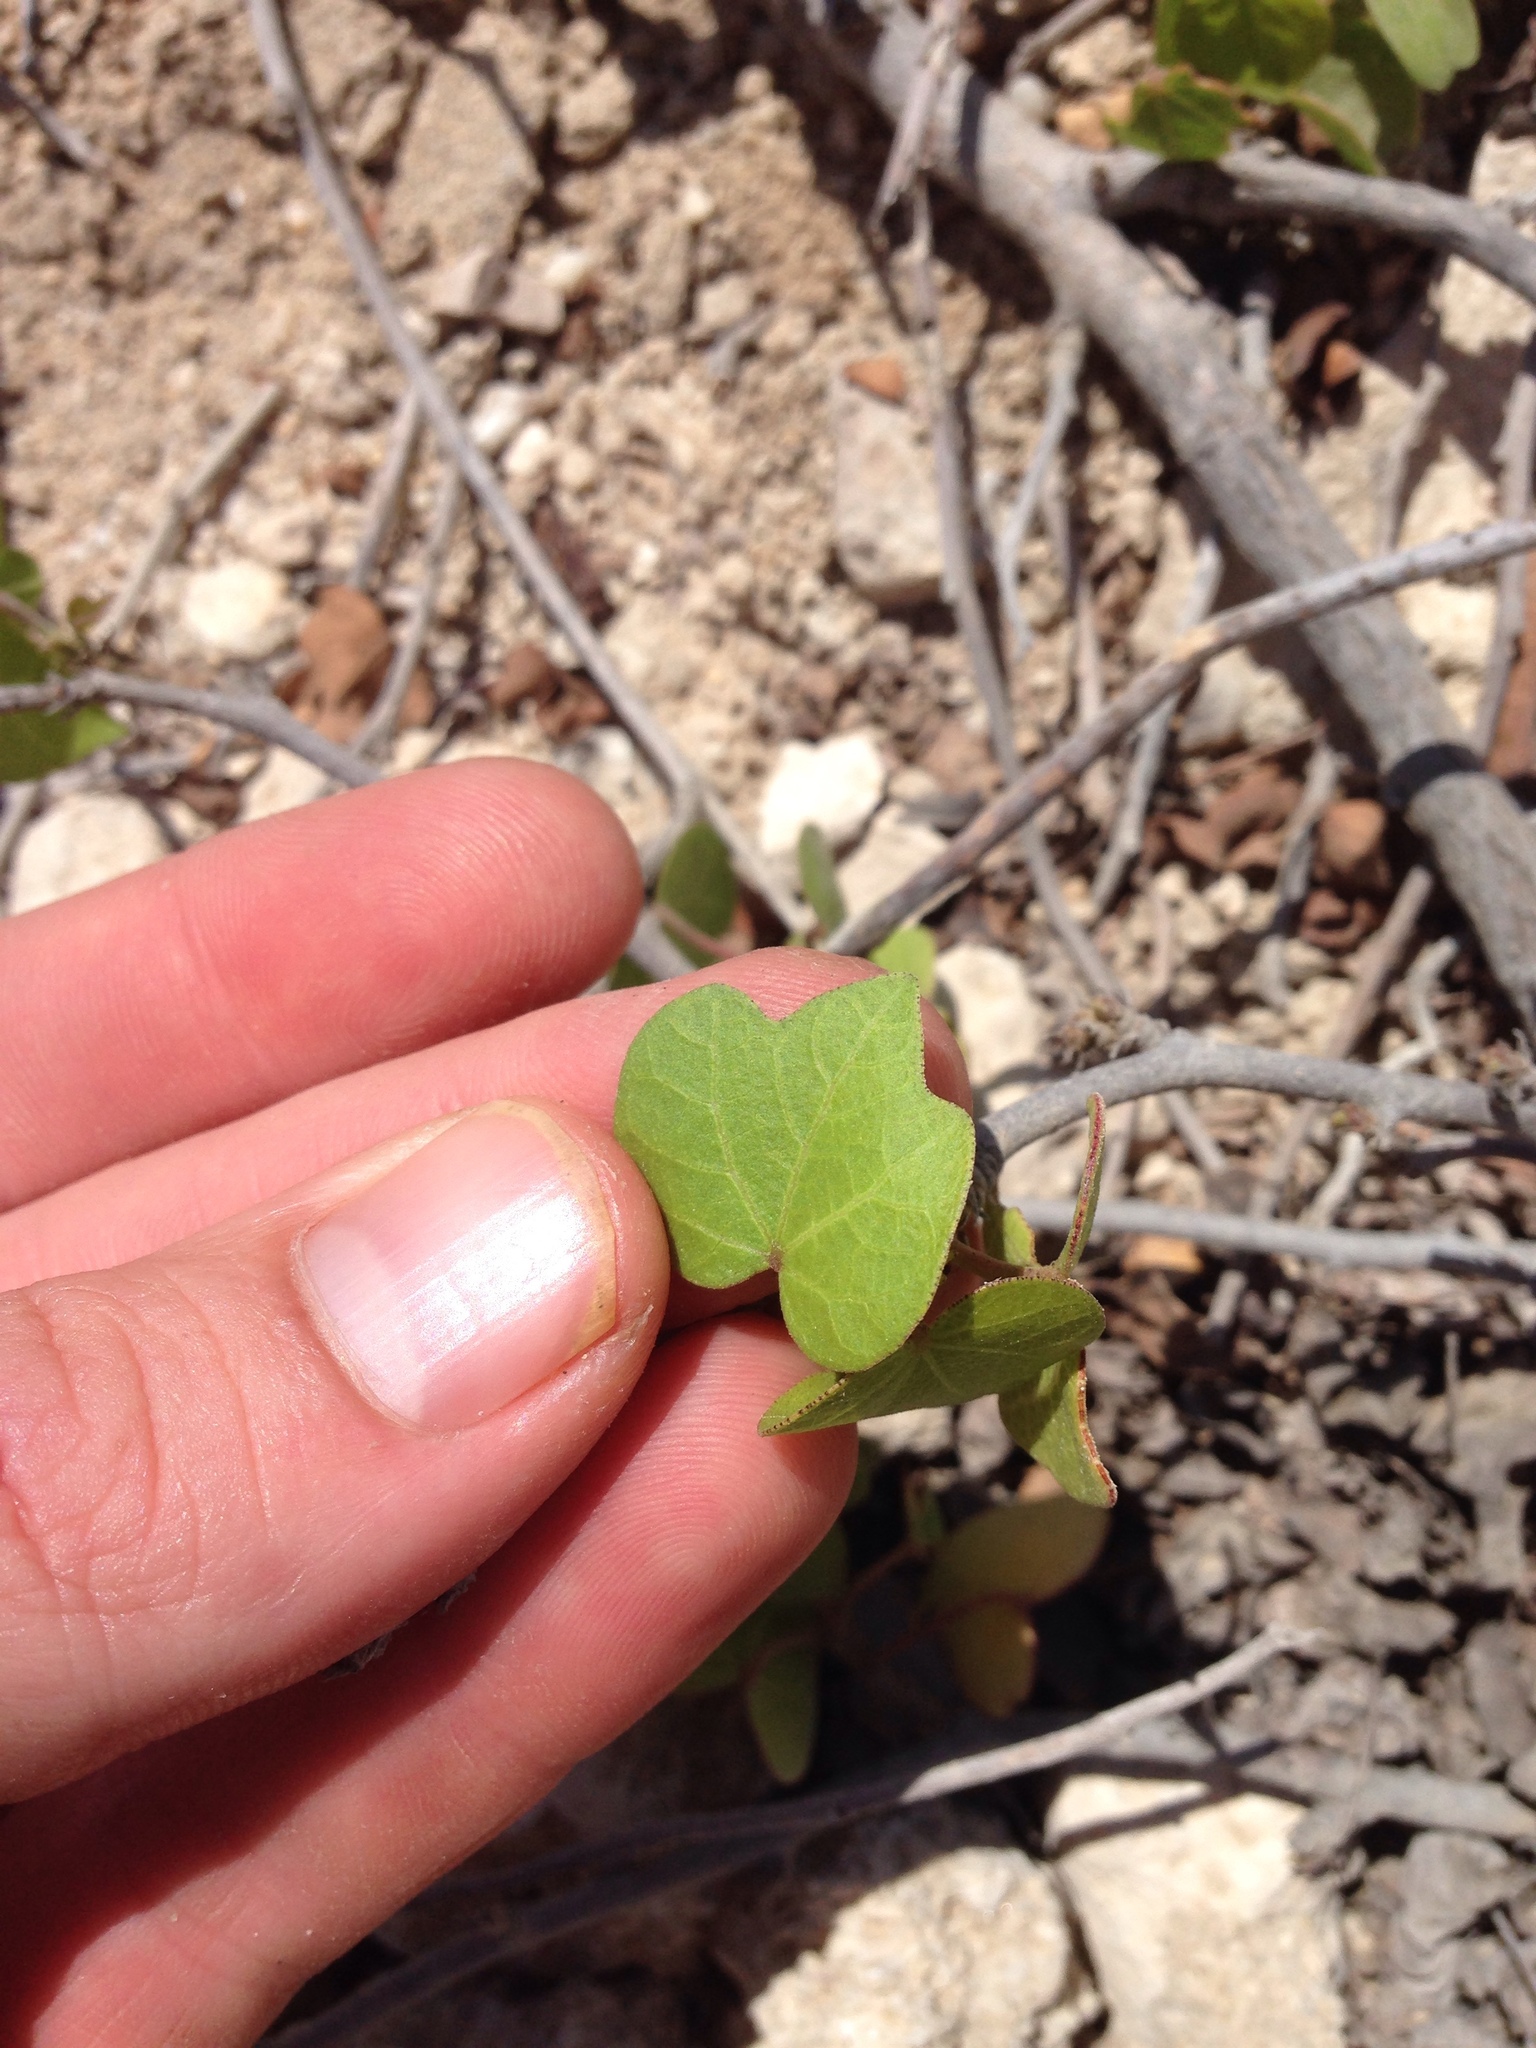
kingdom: Plantae
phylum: Tracheophyta
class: Magnoliopsida
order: Malvales
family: Malvaceae
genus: Gossypium
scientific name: Gossypium harknessii
